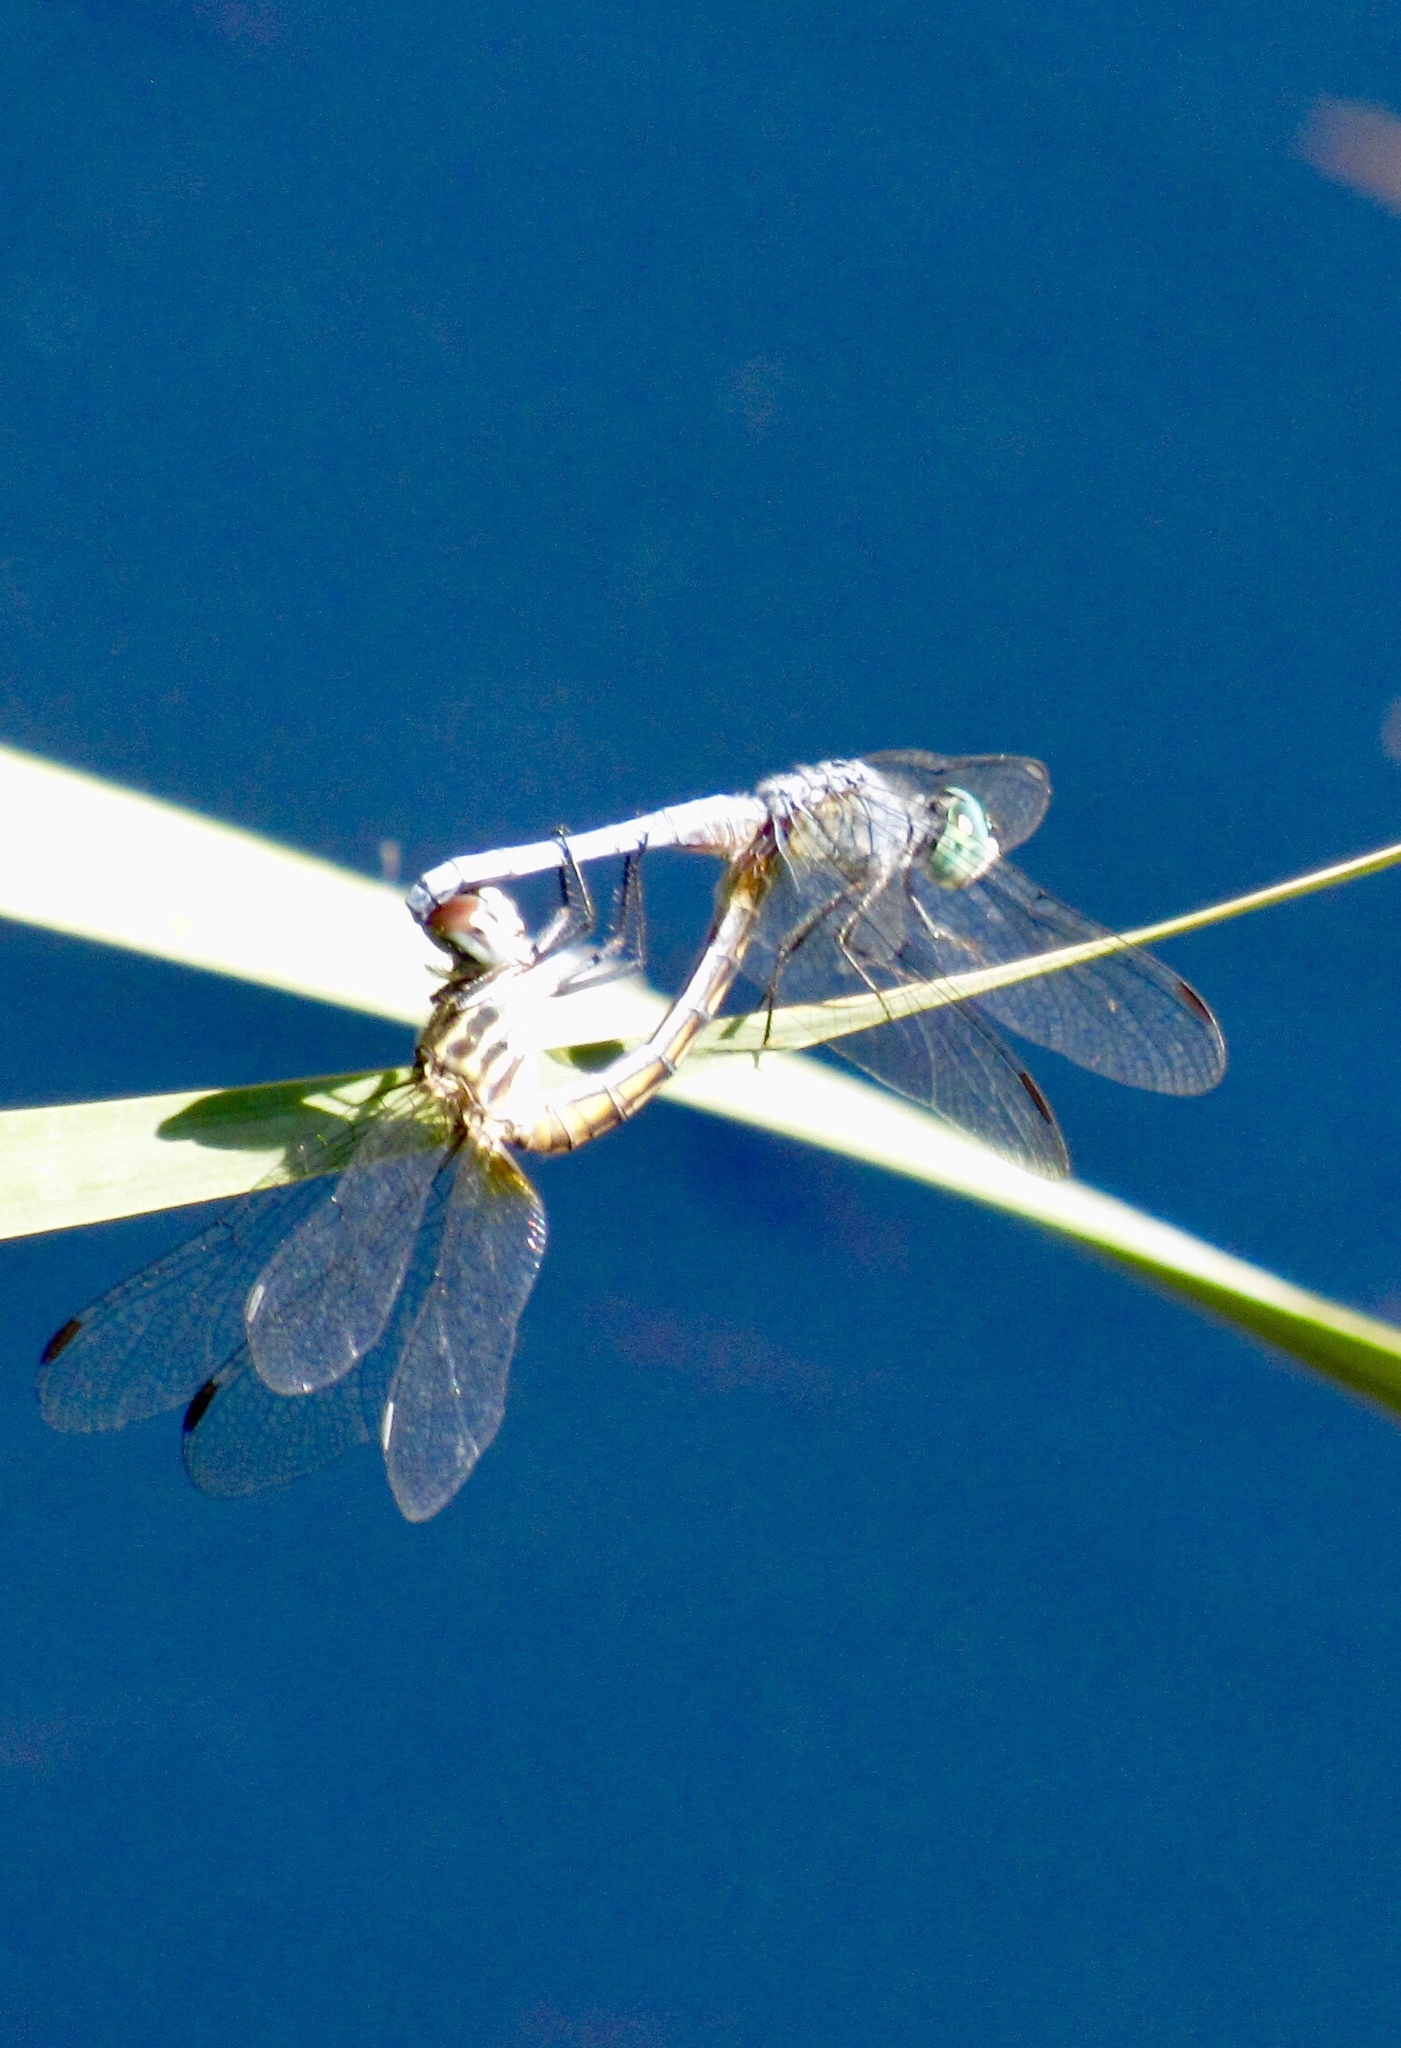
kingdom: Animalia
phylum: Arthropoda
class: Insecta
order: Odonata
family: Libellulidae
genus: Pachydiplax
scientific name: Pachydiplax longipennis
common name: Blue dasher
